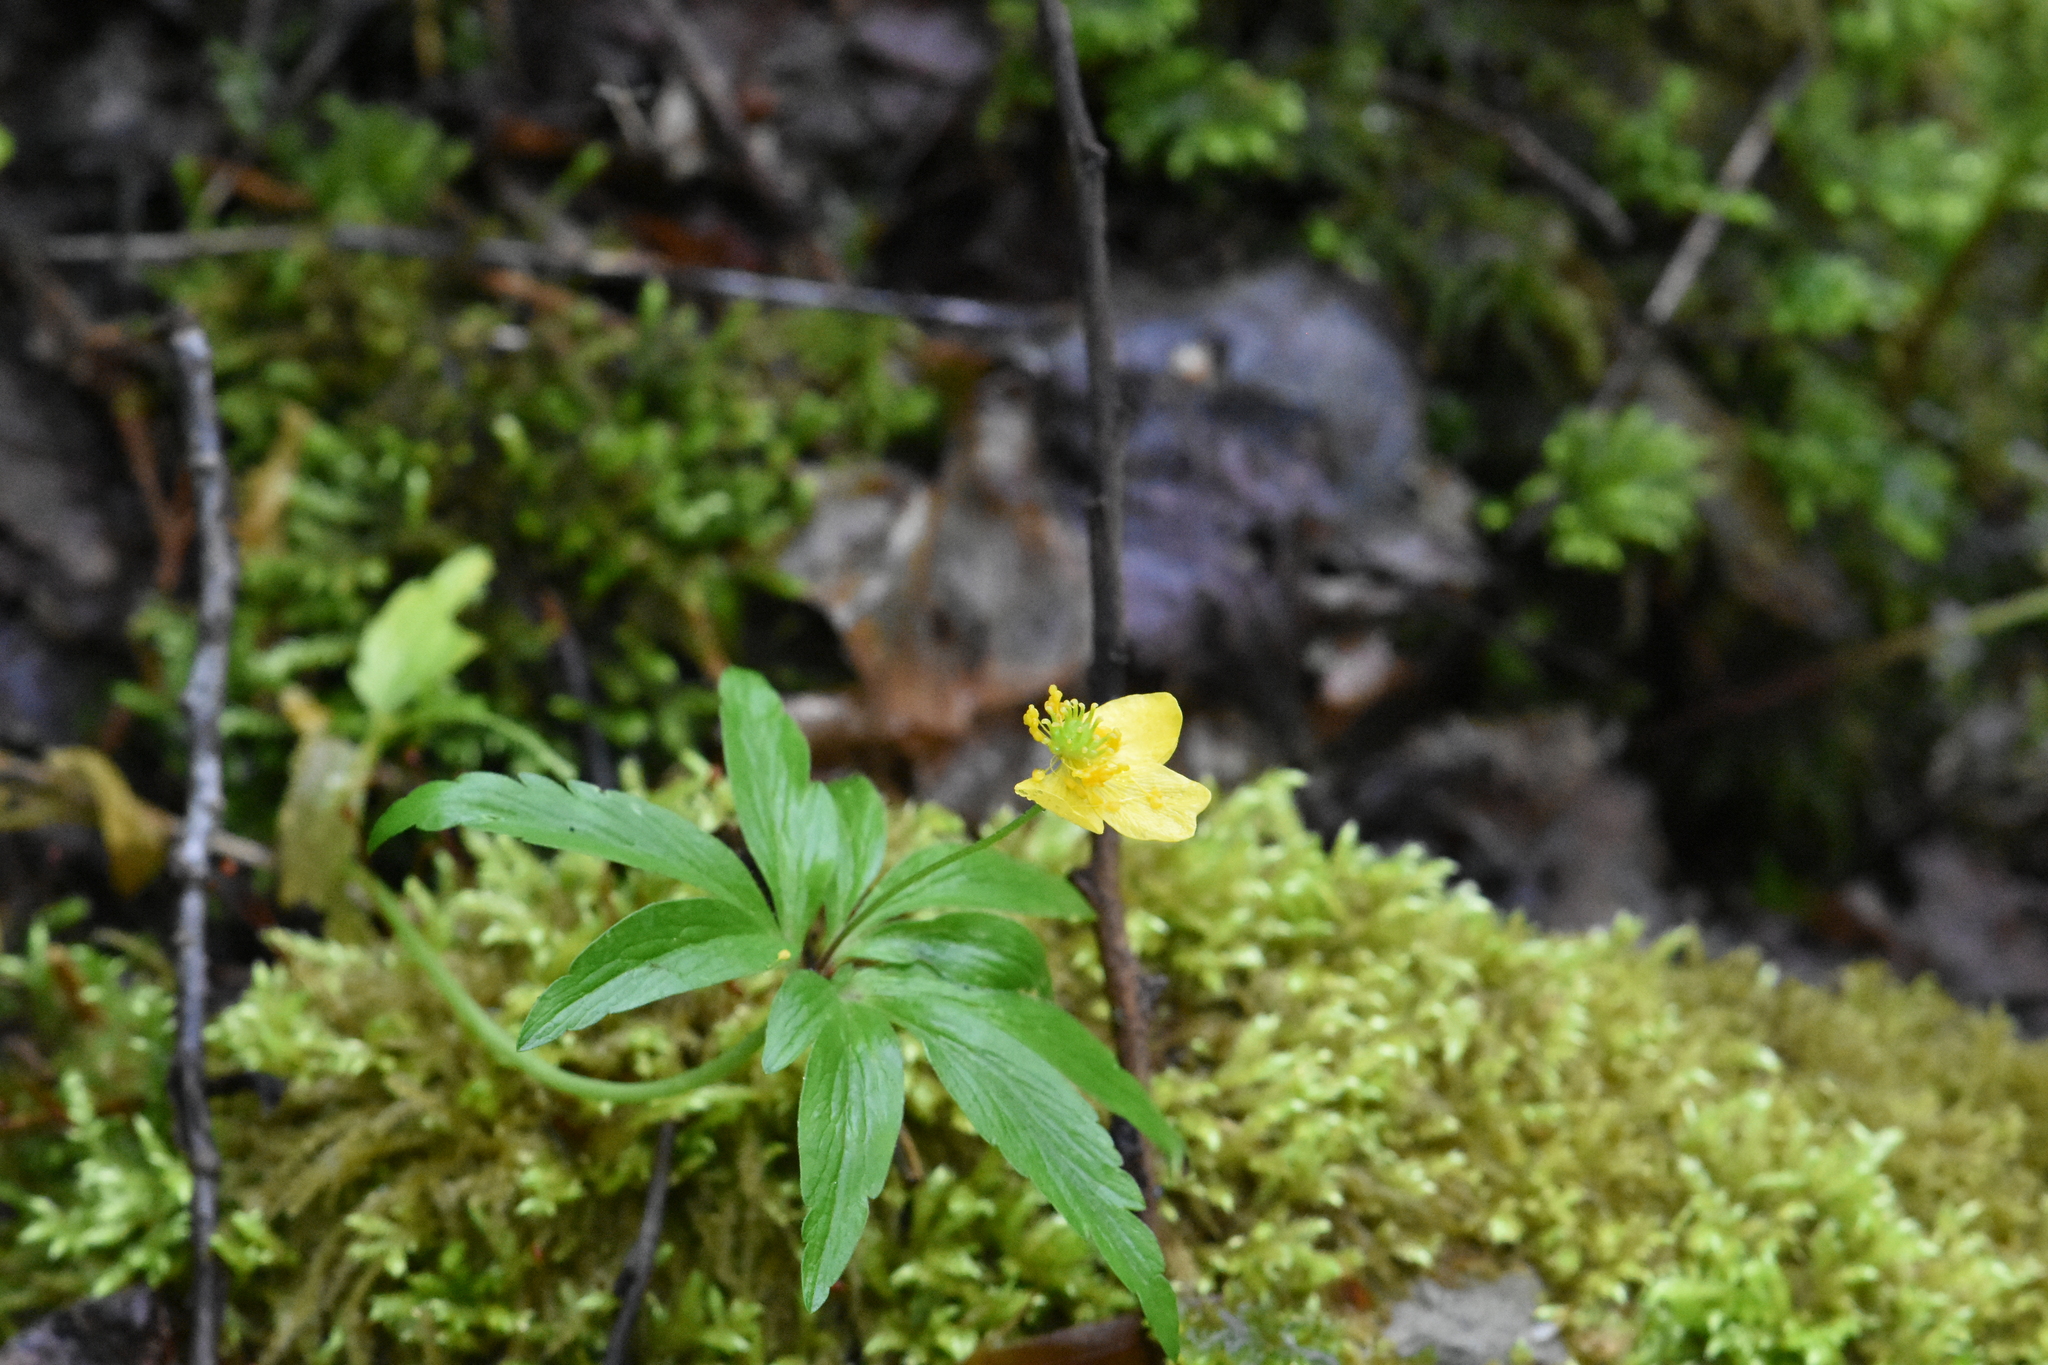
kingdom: Plantae
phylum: Tracheophyta
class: Magnoliopsida
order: Ranunculales
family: Ranunculaceae
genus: Anemone
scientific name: Anemone ranunculoides
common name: Yellow anemone
